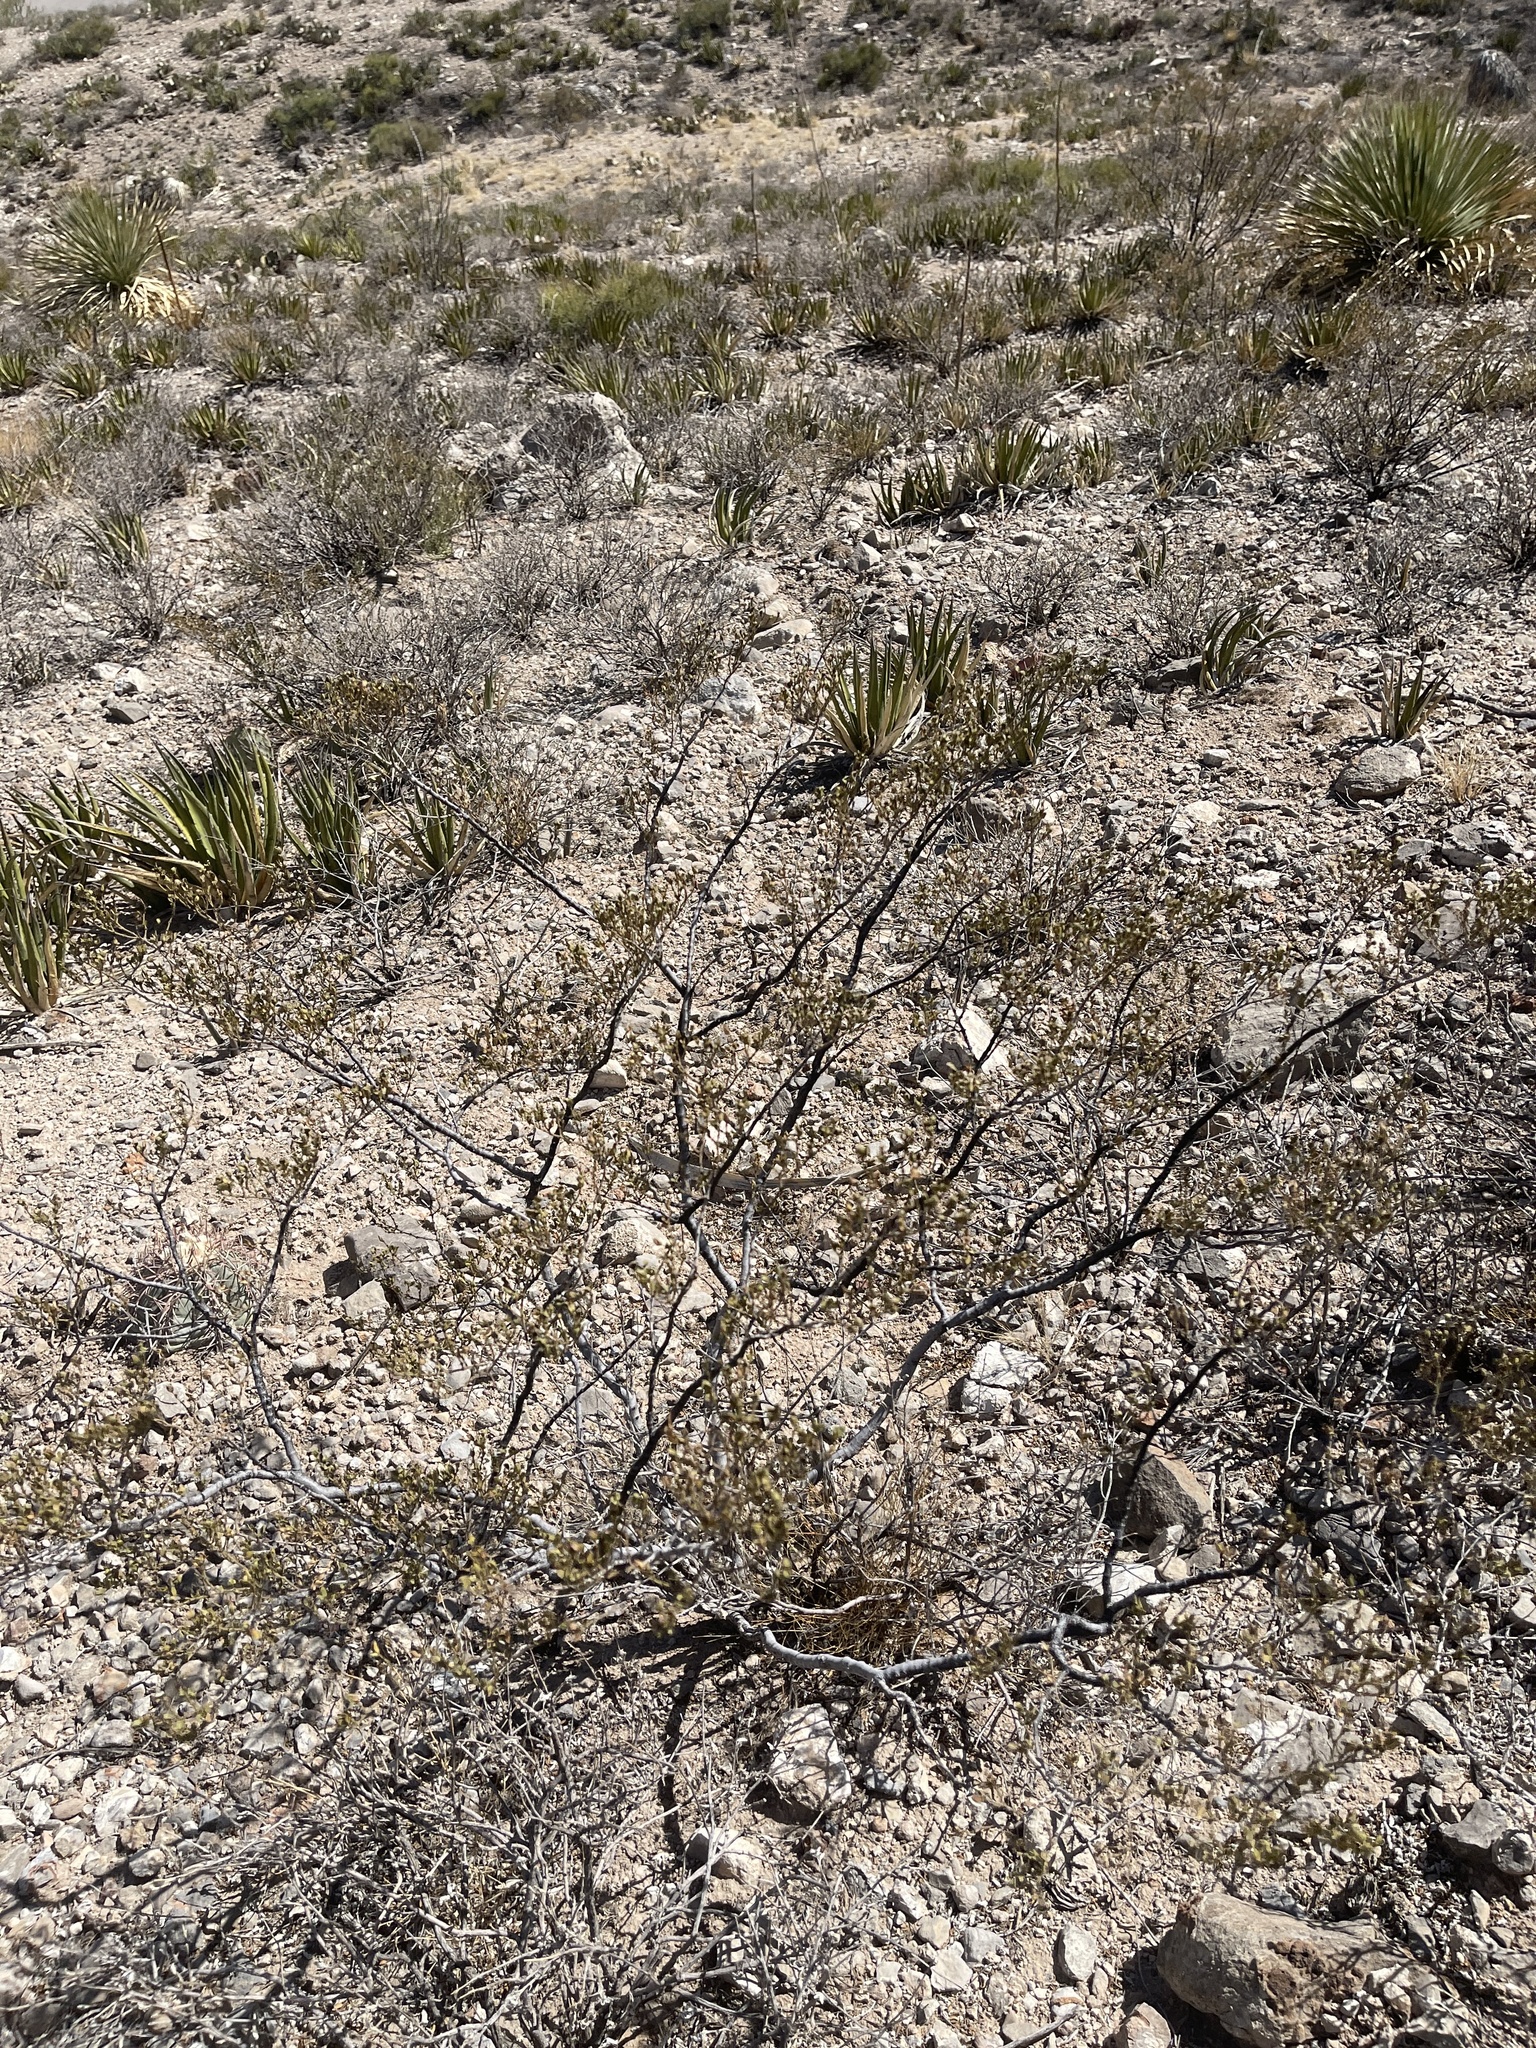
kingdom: Plantae
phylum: Tracheophyta
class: Magnoliopsida
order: Zygophyllales
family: Zygophyllaceae
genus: Larrea
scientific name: Larrea tridentata
